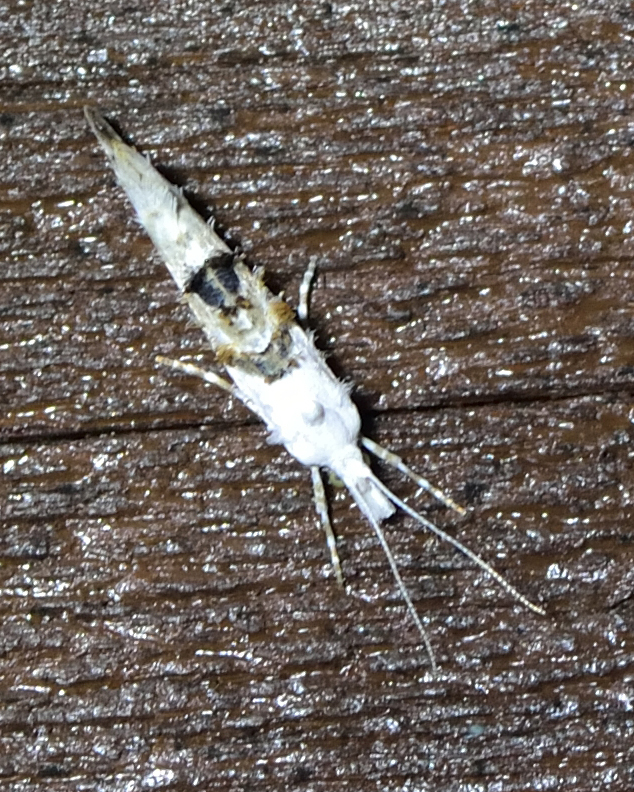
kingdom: Animalia
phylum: Arthropoda
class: Insecta
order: Lepidoptera
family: Plutellidae
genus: Ypsolophus
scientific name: Ypsolophus asperella
